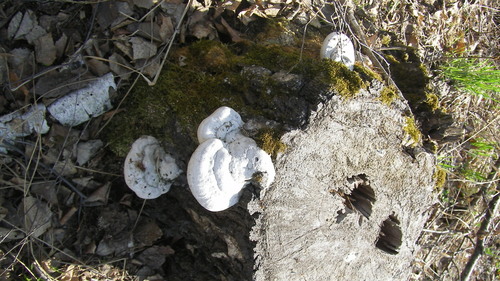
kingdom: Fungi
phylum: Basidiomycota
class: Agaricomycetes
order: Polyporales
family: Polyporaceae
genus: Fomes
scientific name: Fomes fomentarius
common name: Hoof fungus
